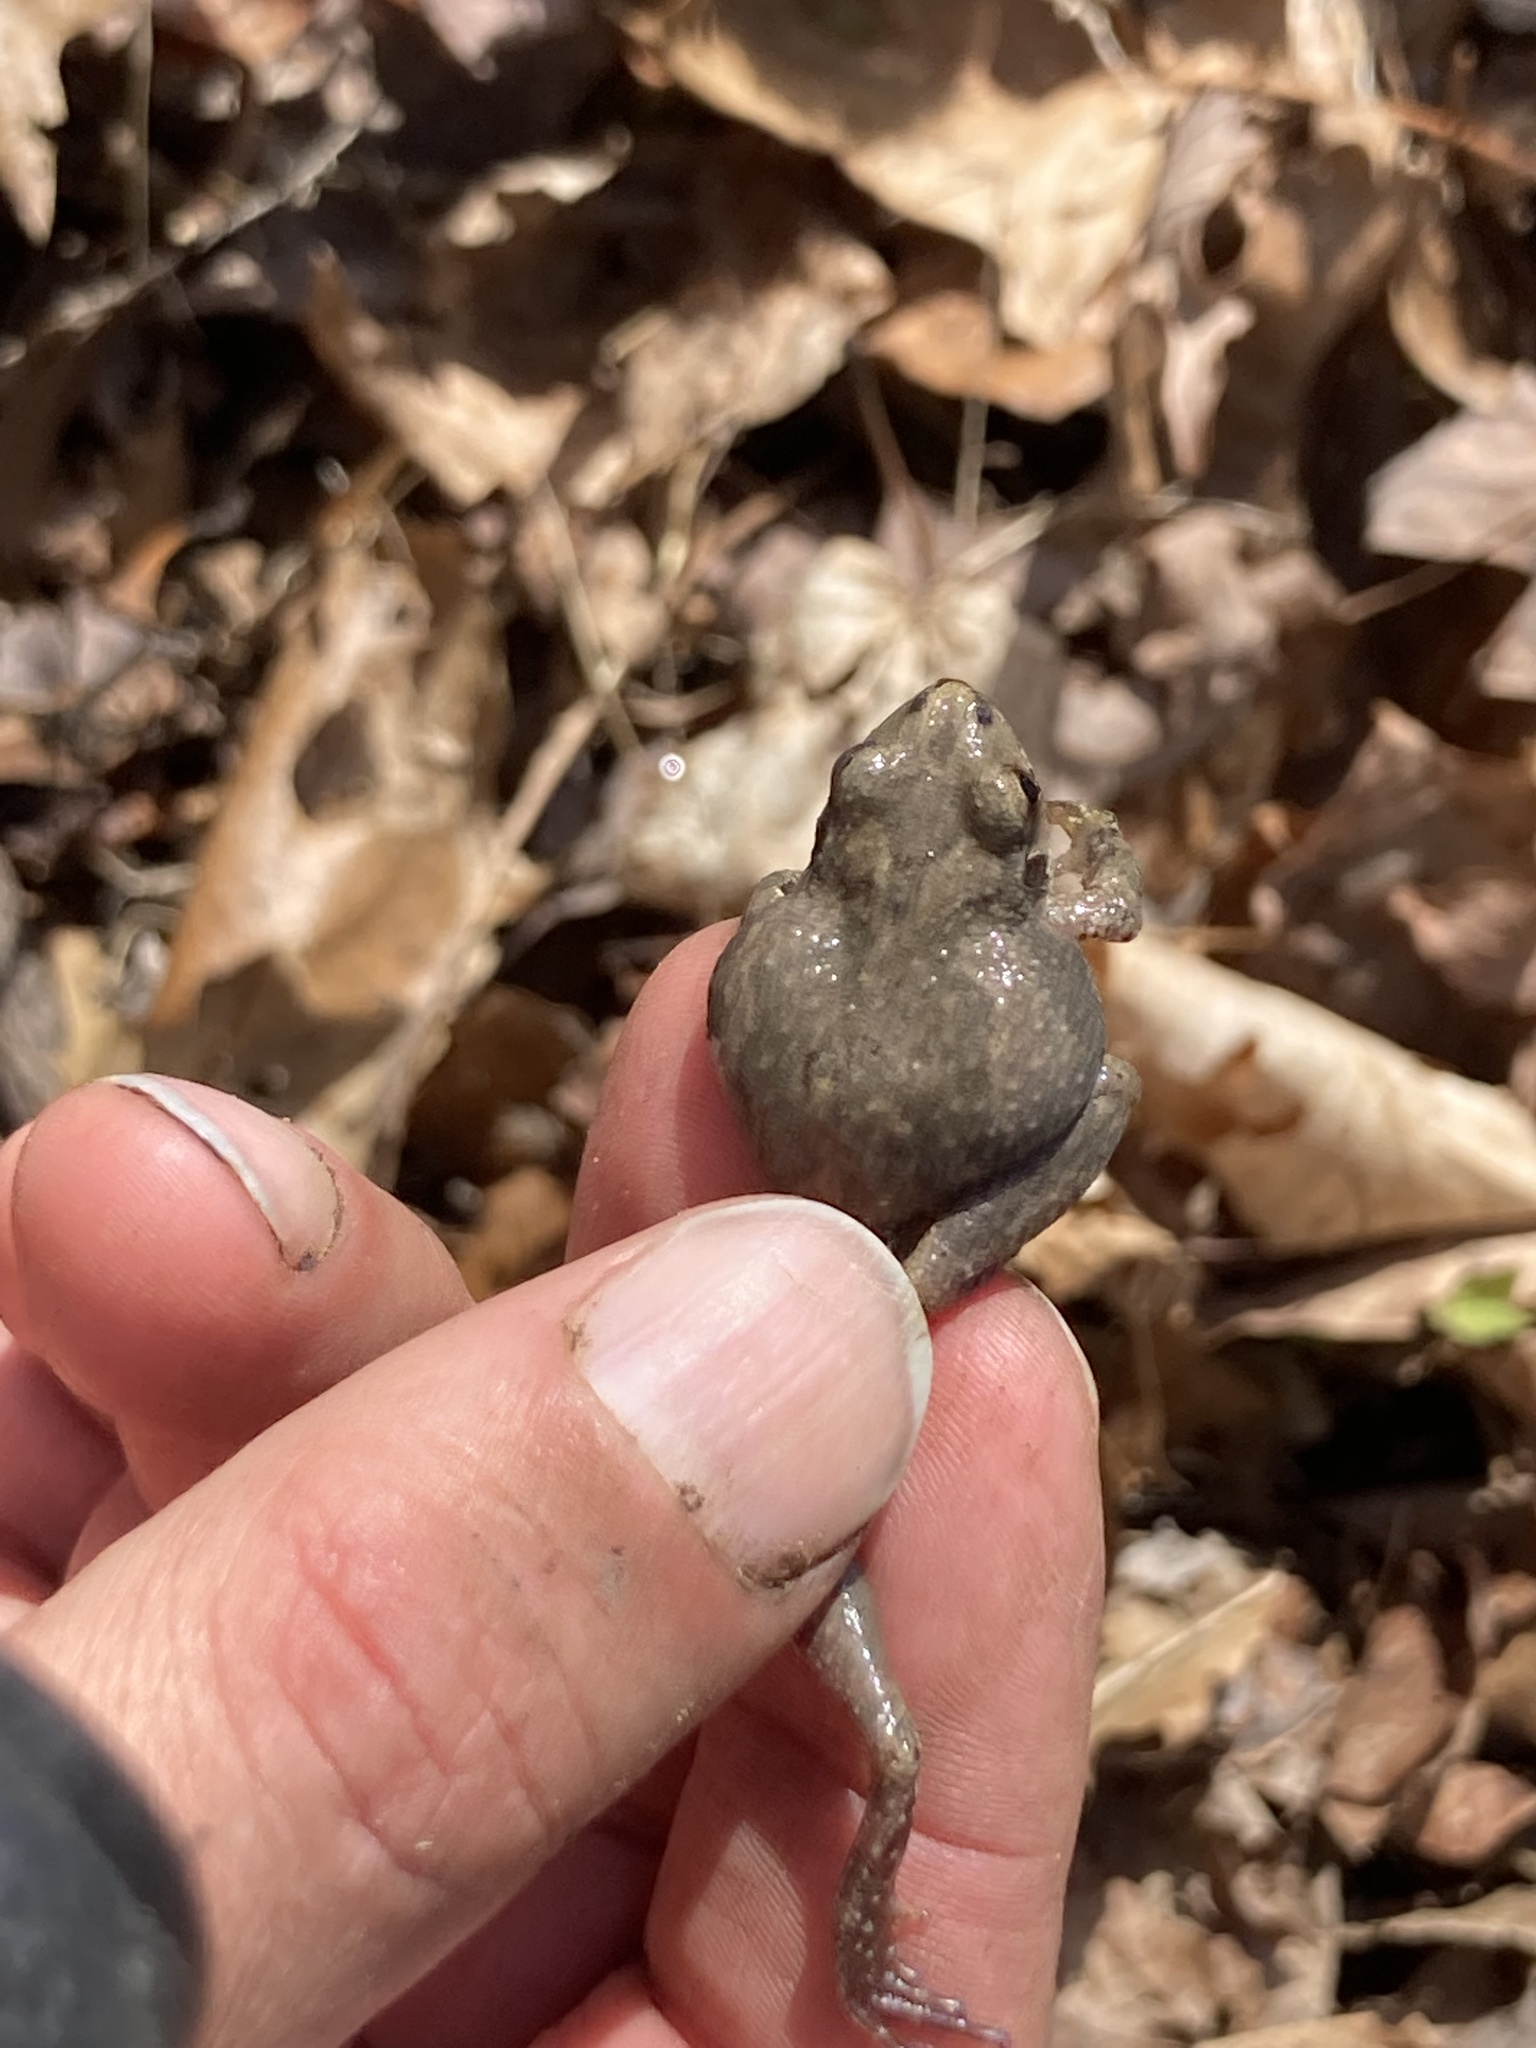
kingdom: Animalia
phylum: Chordata
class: Amphibia
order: Anura
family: Hylidae
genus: Pseudacris
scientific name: Pseudacris brachyphona
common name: Mountain chorus frog
